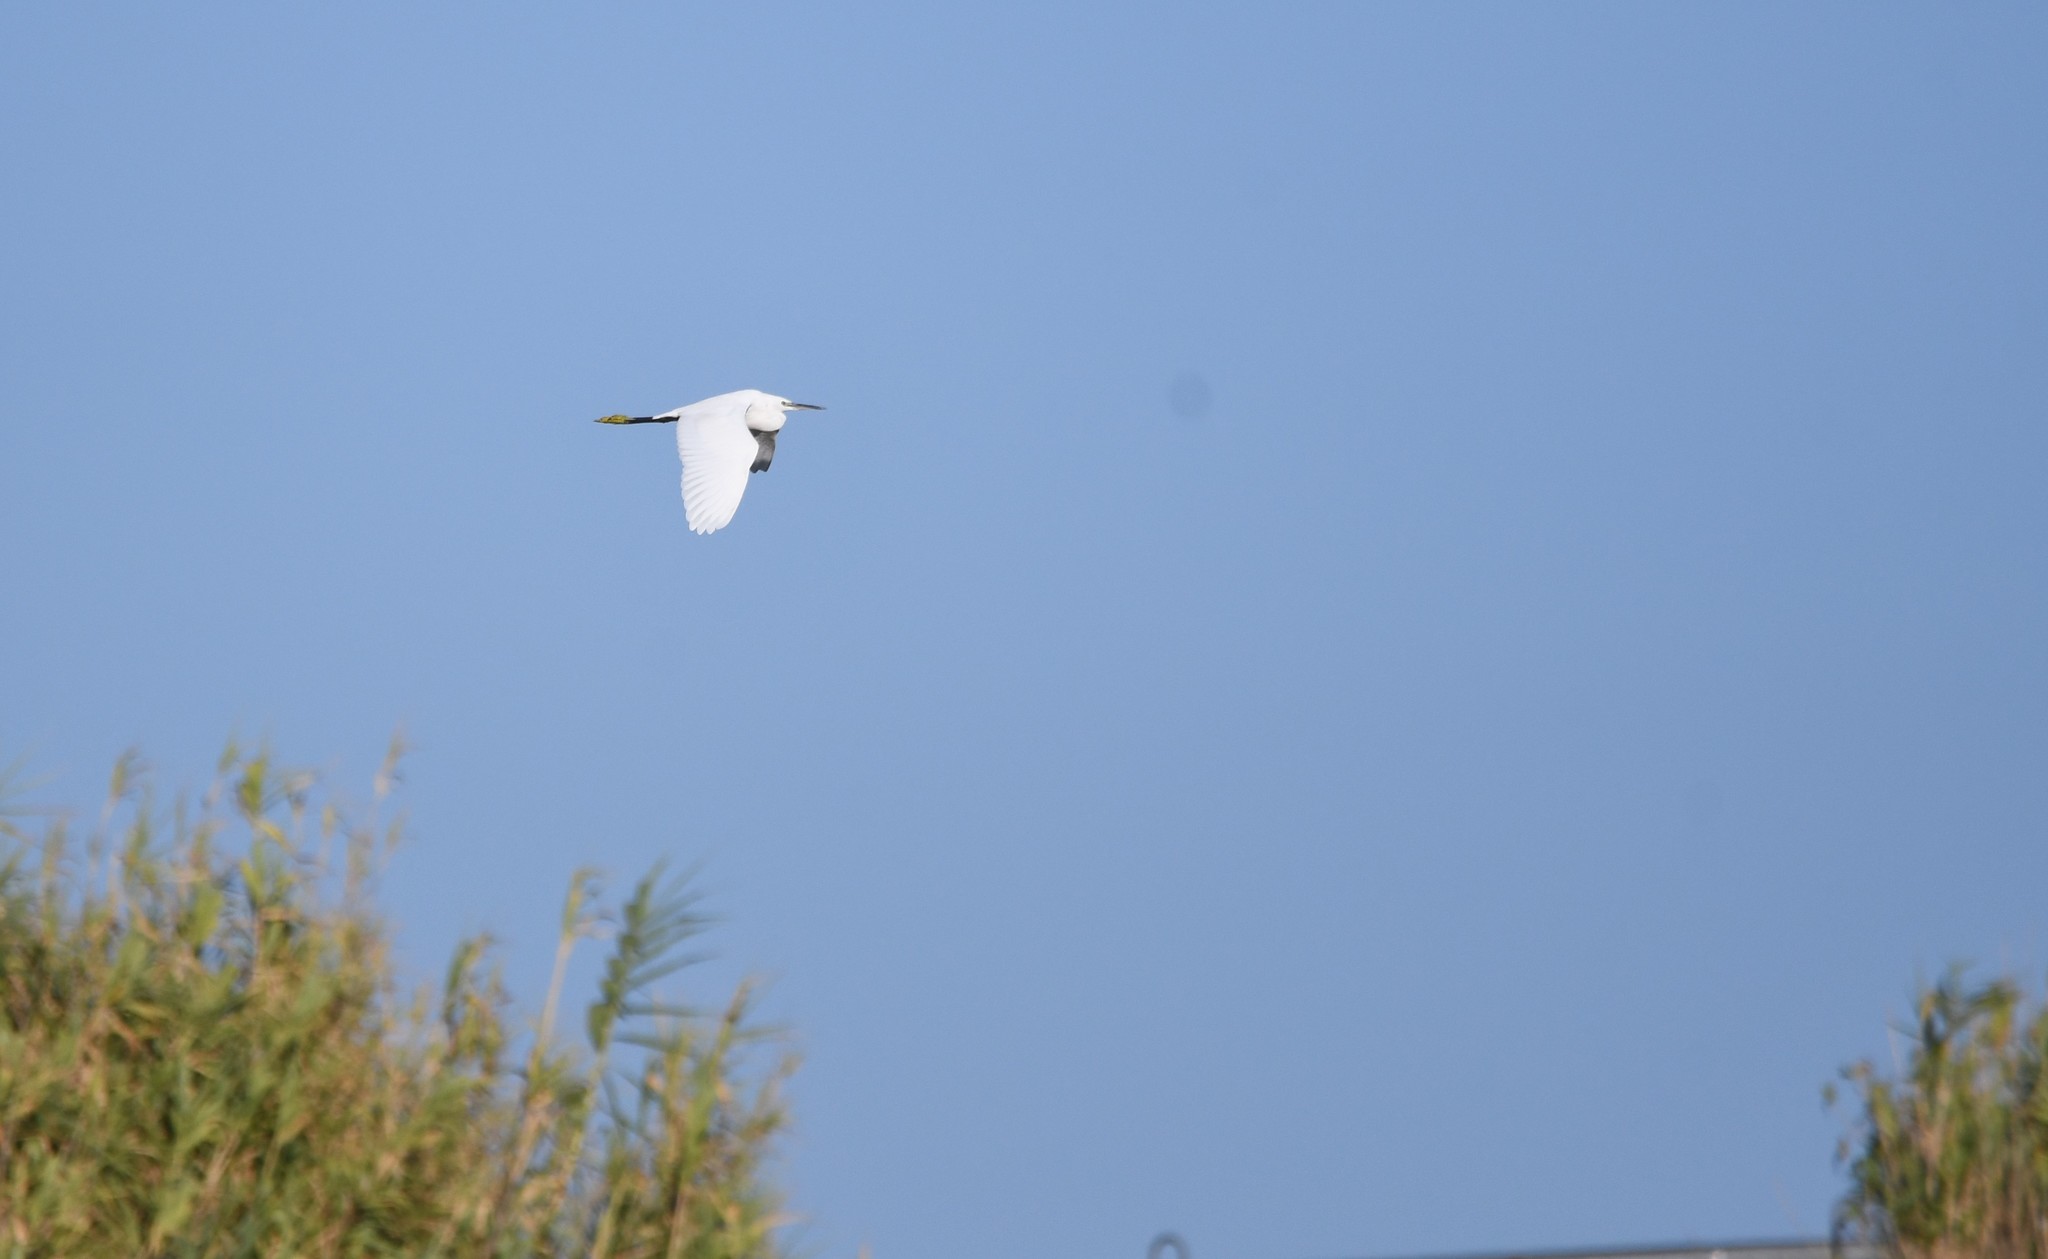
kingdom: Animalia
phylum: Chordata
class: Aves
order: Pelecaniformes
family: Ardeidae
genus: Egretta
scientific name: Egretta garzetta
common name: Little egret
